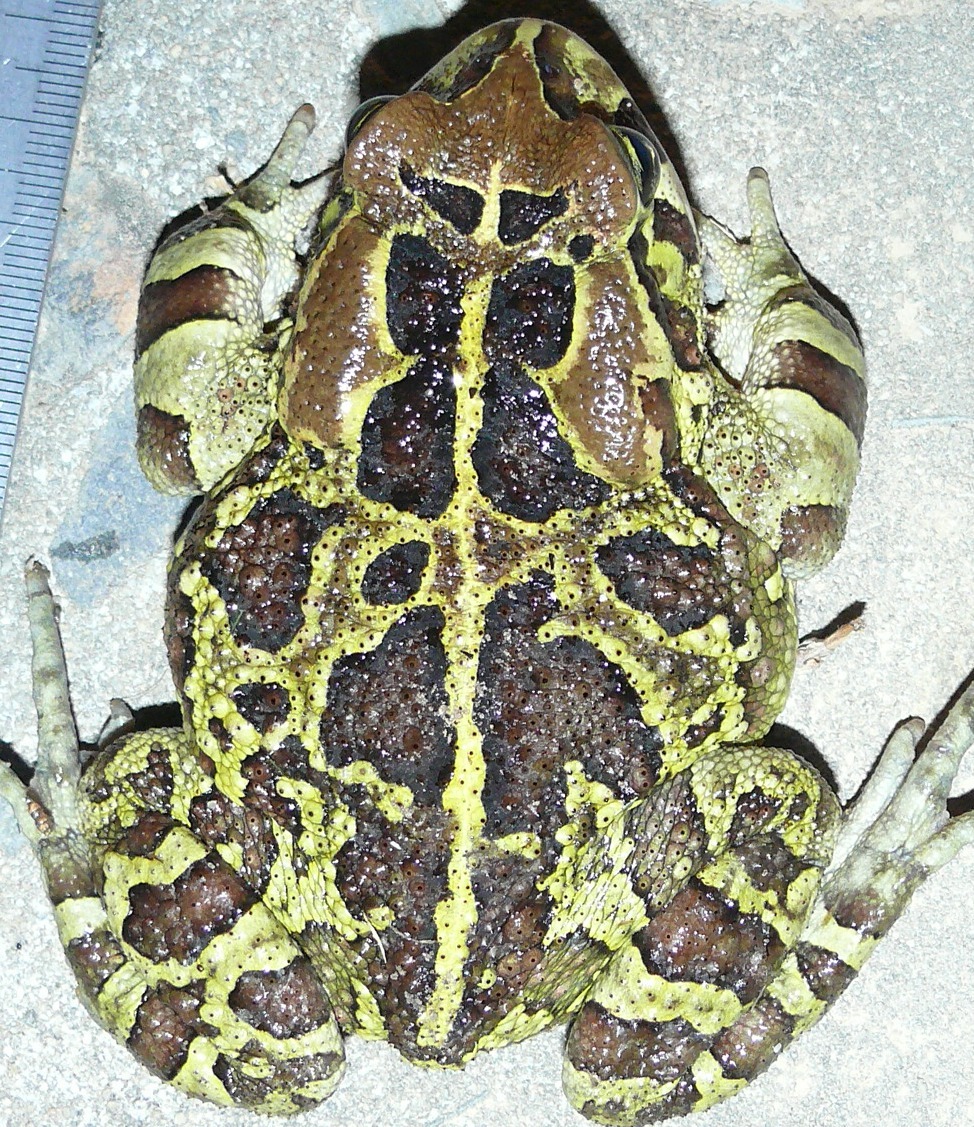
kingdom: Animalia
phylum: Chordata
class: Amphibia
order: Anura
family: Bufonidae
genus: Sclerophrys
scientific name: Sclerophrys pantherina
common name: Panther toad
